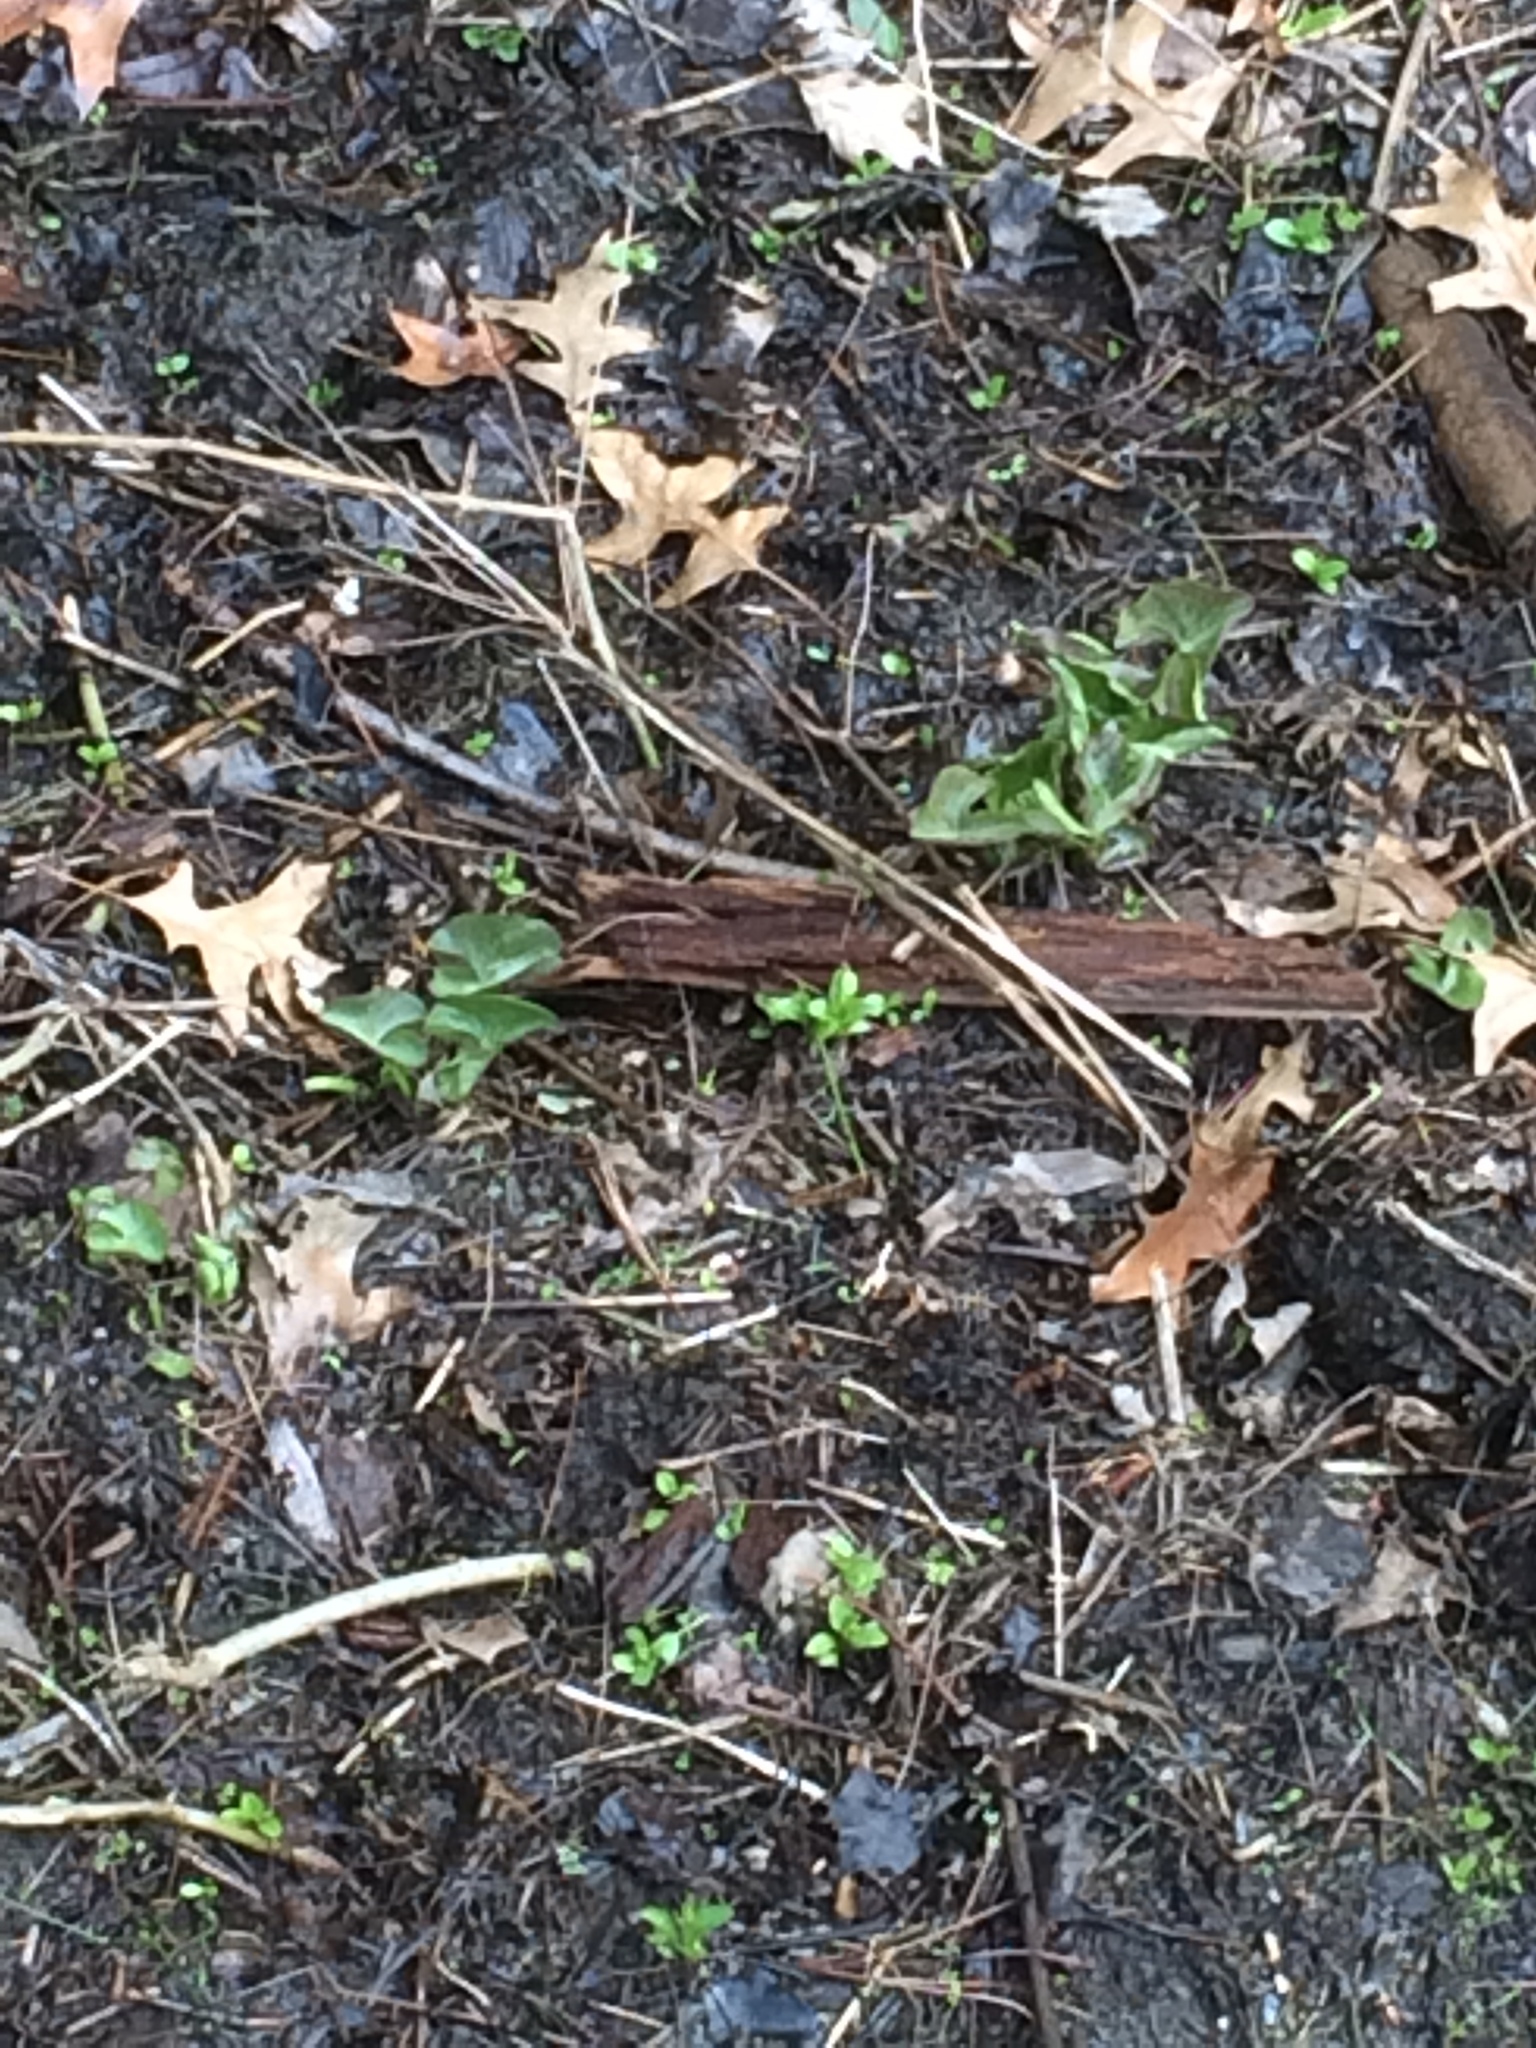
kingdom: Plantae
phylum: Tracheophyta
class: Magnoliopsida
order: Ranunculales
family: Ranunculaceae
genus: Caltha
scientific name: Caltha palustris
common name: Marsh marigold
